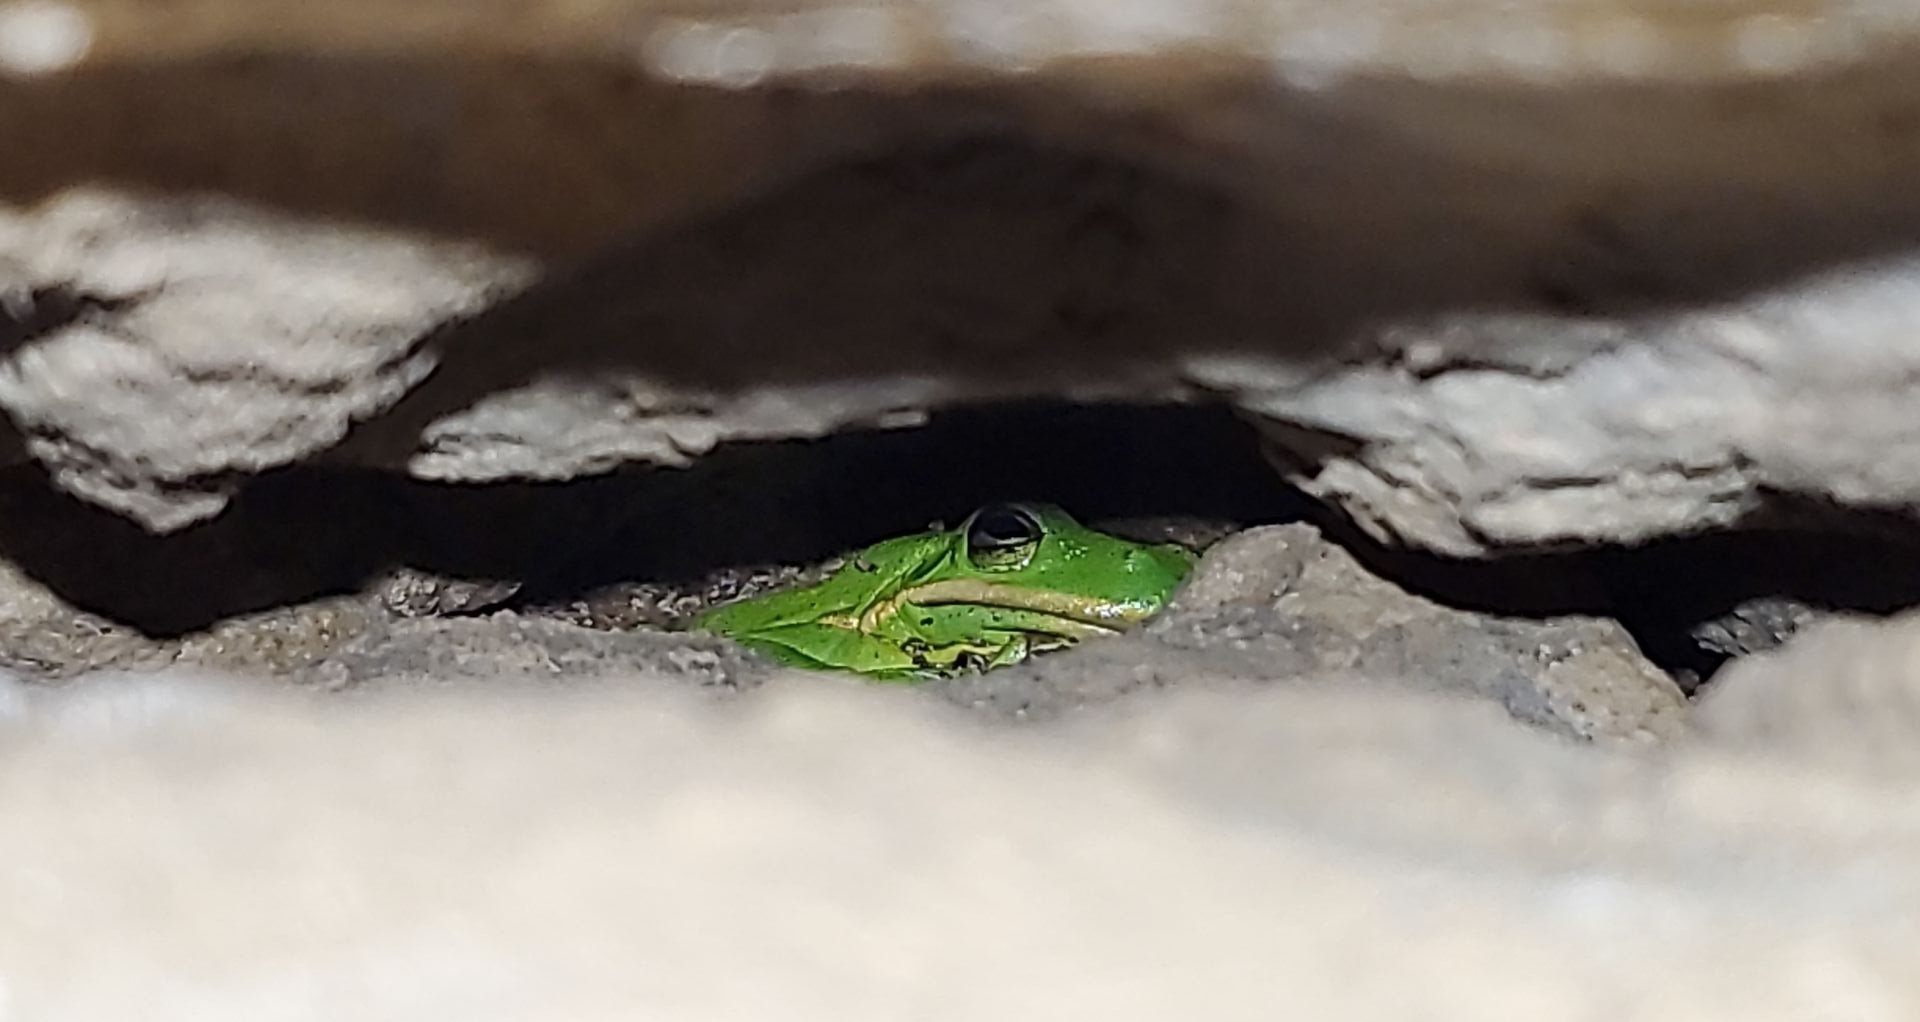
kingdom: Animalia
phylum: Chordata
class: Amphibia
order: Anura
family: Hylidae
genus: Dryophytes
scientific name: Dryophytes cinereus
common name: Green treefrog
